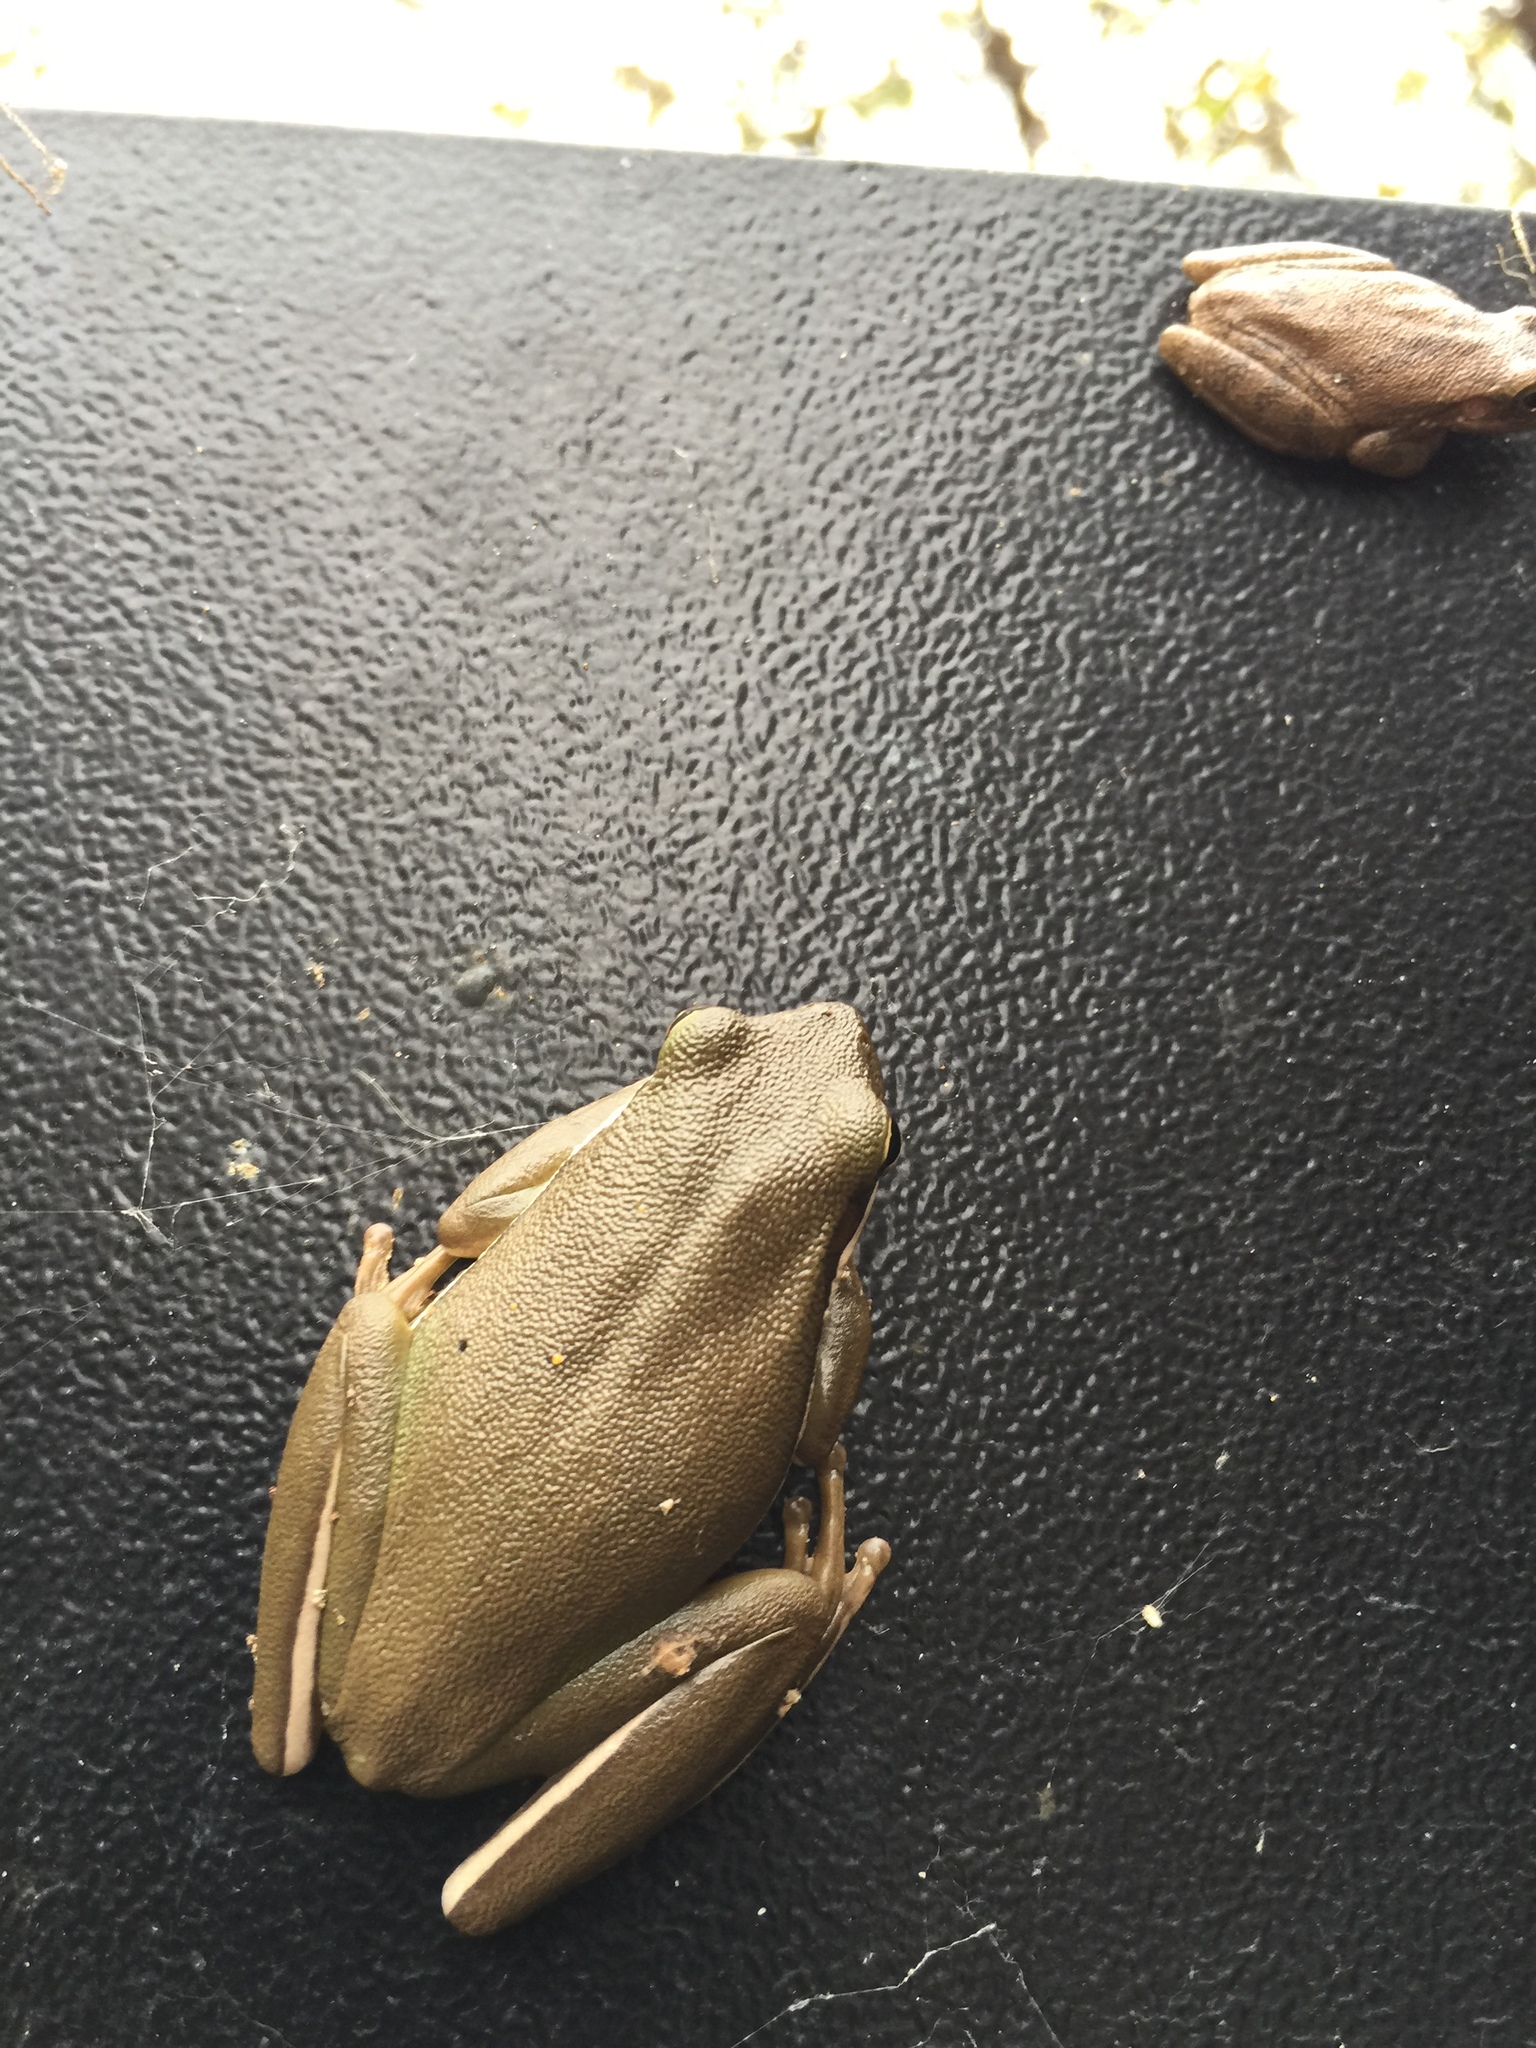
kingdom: Animalia
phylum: Chordata
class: Amphibia
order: Anura
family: Hylidae
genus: Dryophytes
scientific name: Dryophytes cinereus
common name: Green treefrog
